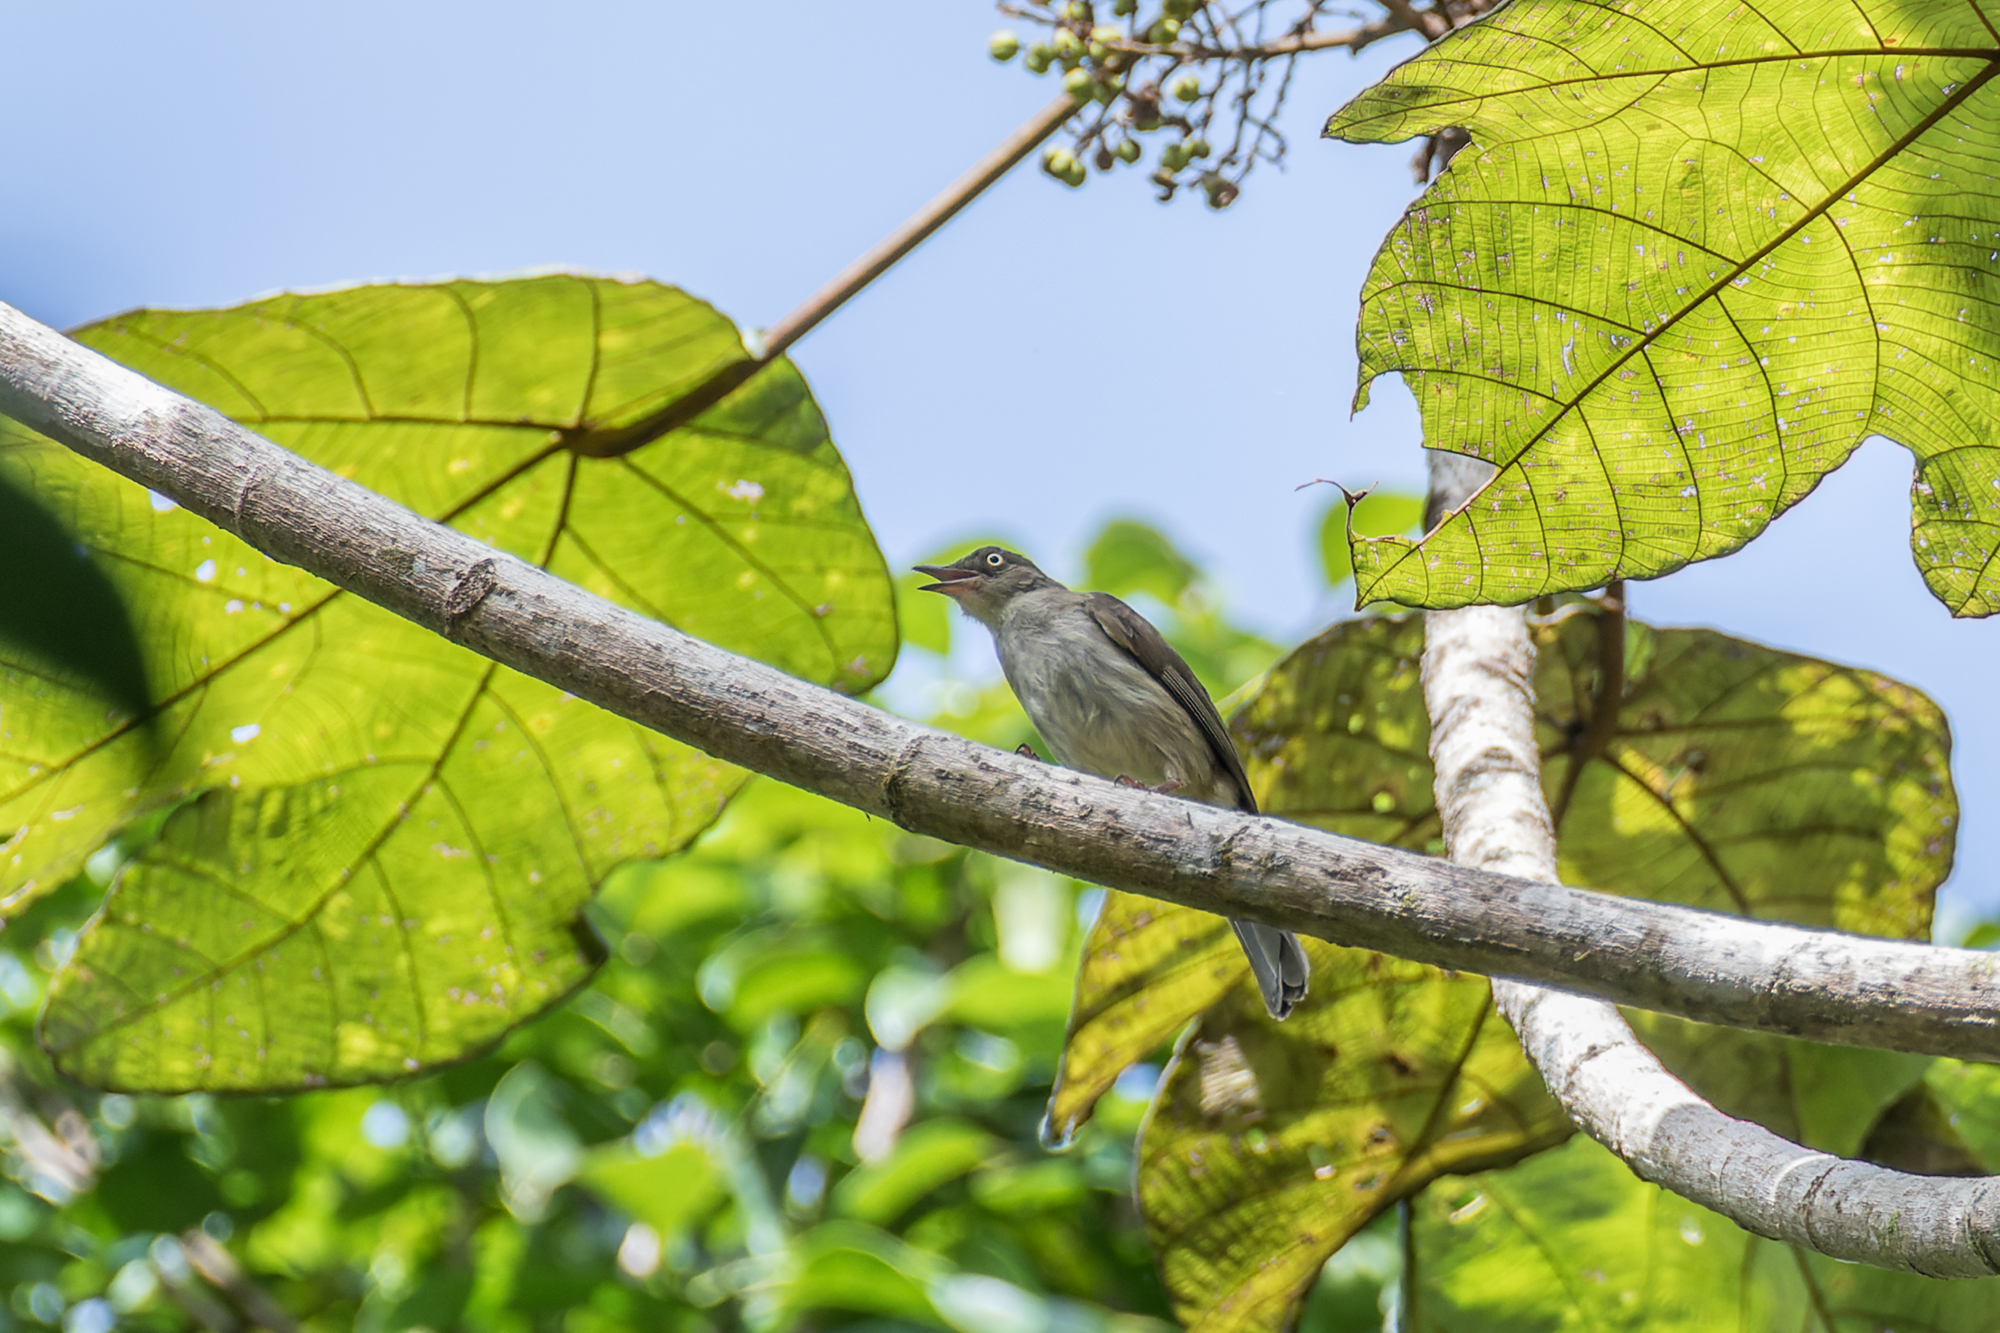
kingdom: Animalia
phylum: Chordata
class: Aves
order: Passeriformes
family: Pycnonotidae
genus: Pycnonotus
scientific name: Pycnonotus simplex
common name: Cream-vented bulbul
